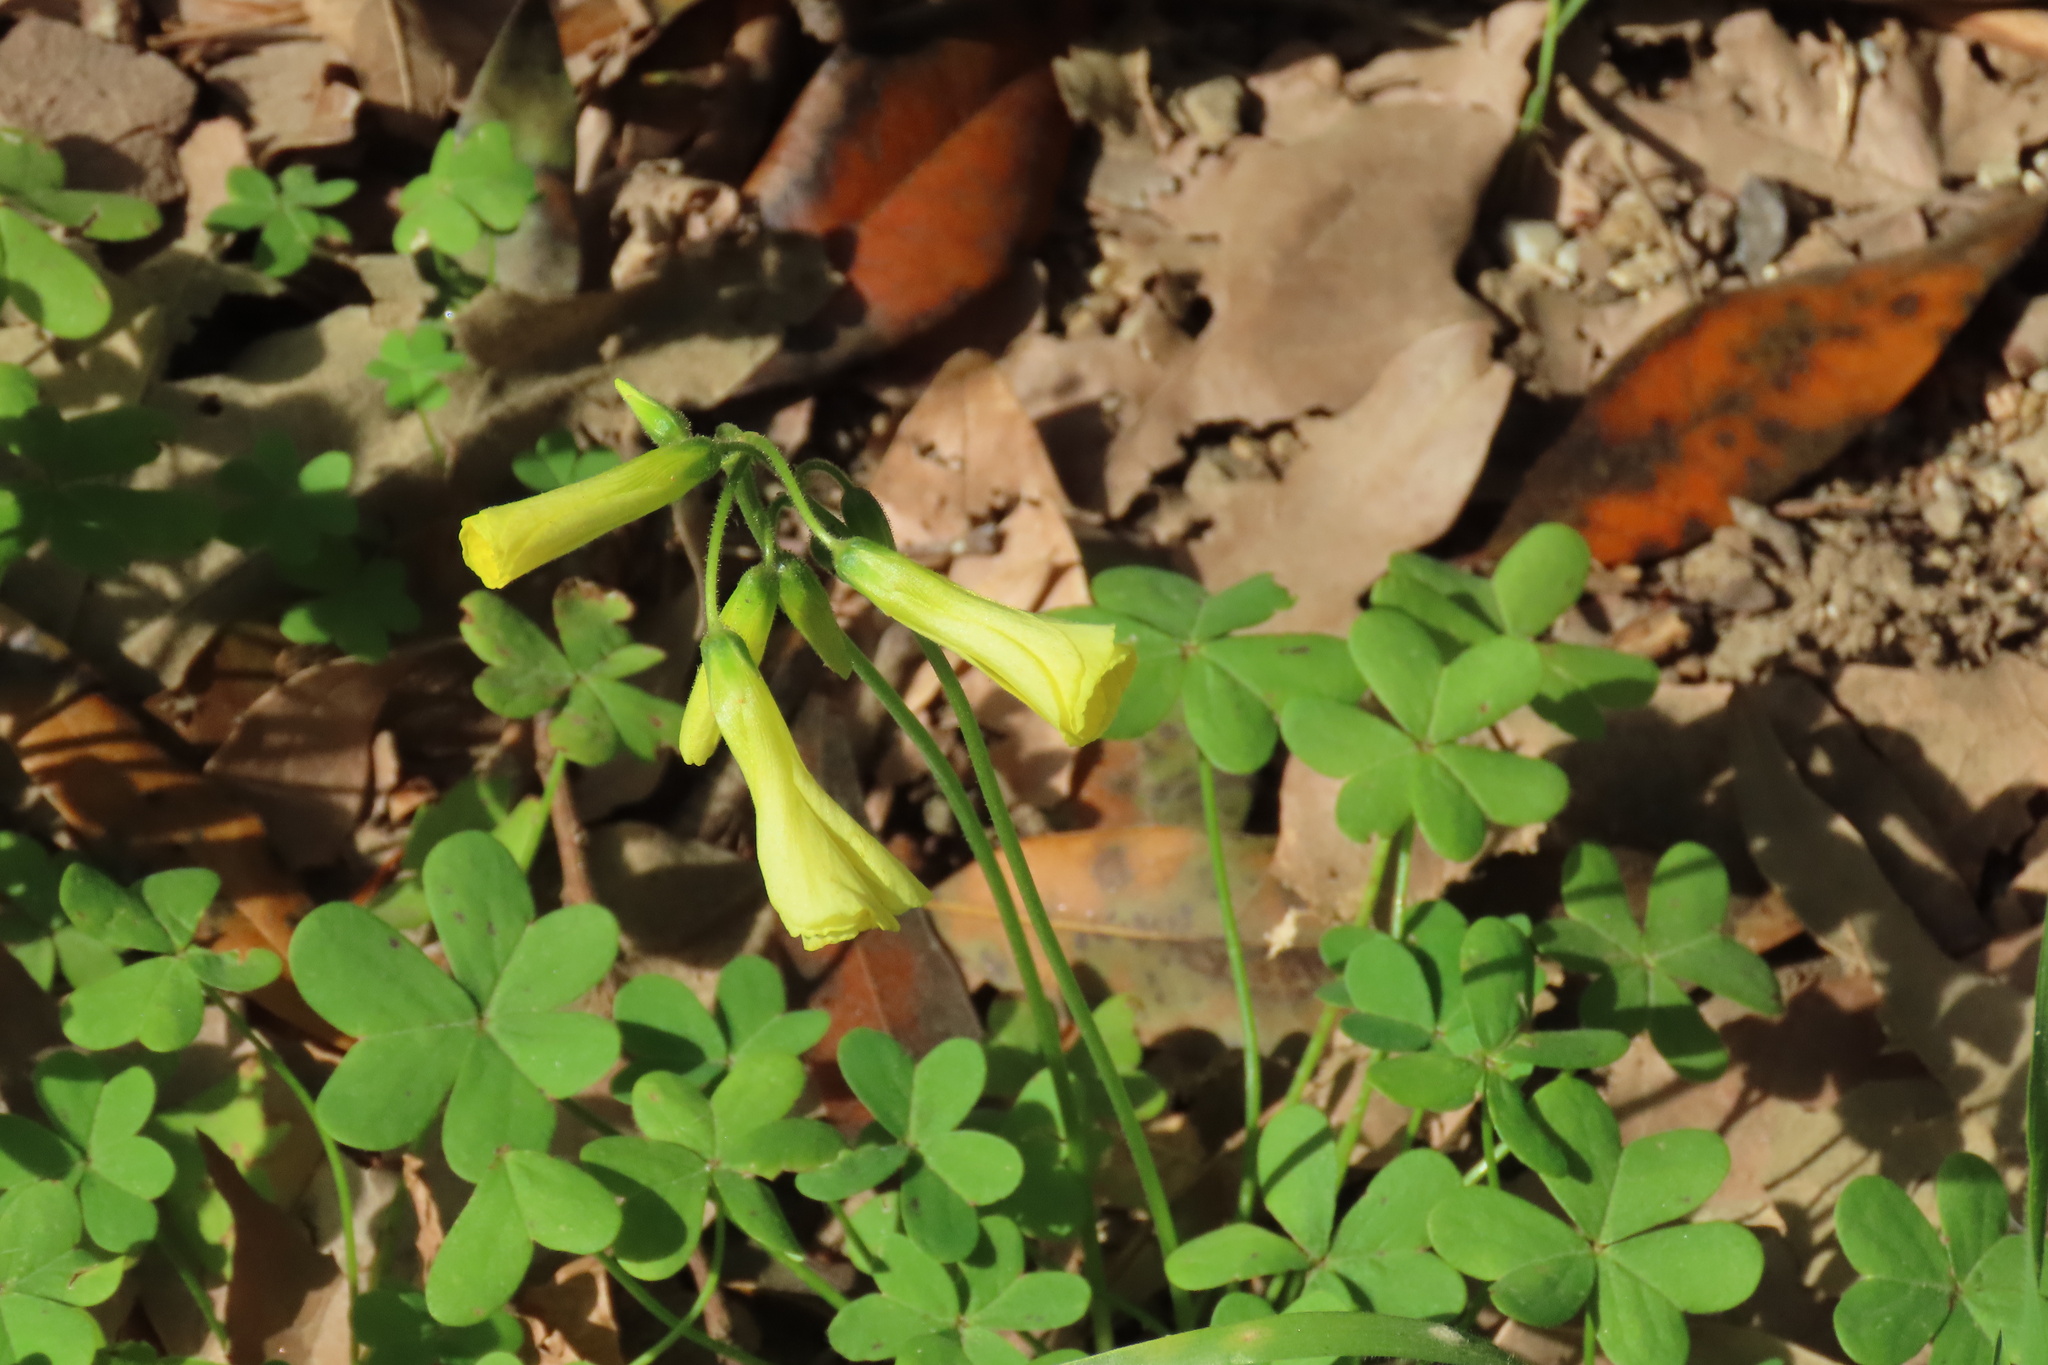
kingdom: Plantae
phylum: Tracheophyta
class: Magnoliopsida
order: Oxalidales
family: Oxalidaceae
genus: Oxalis
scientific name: Oxalis pes-caprae
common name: Bermuda-buttercup
